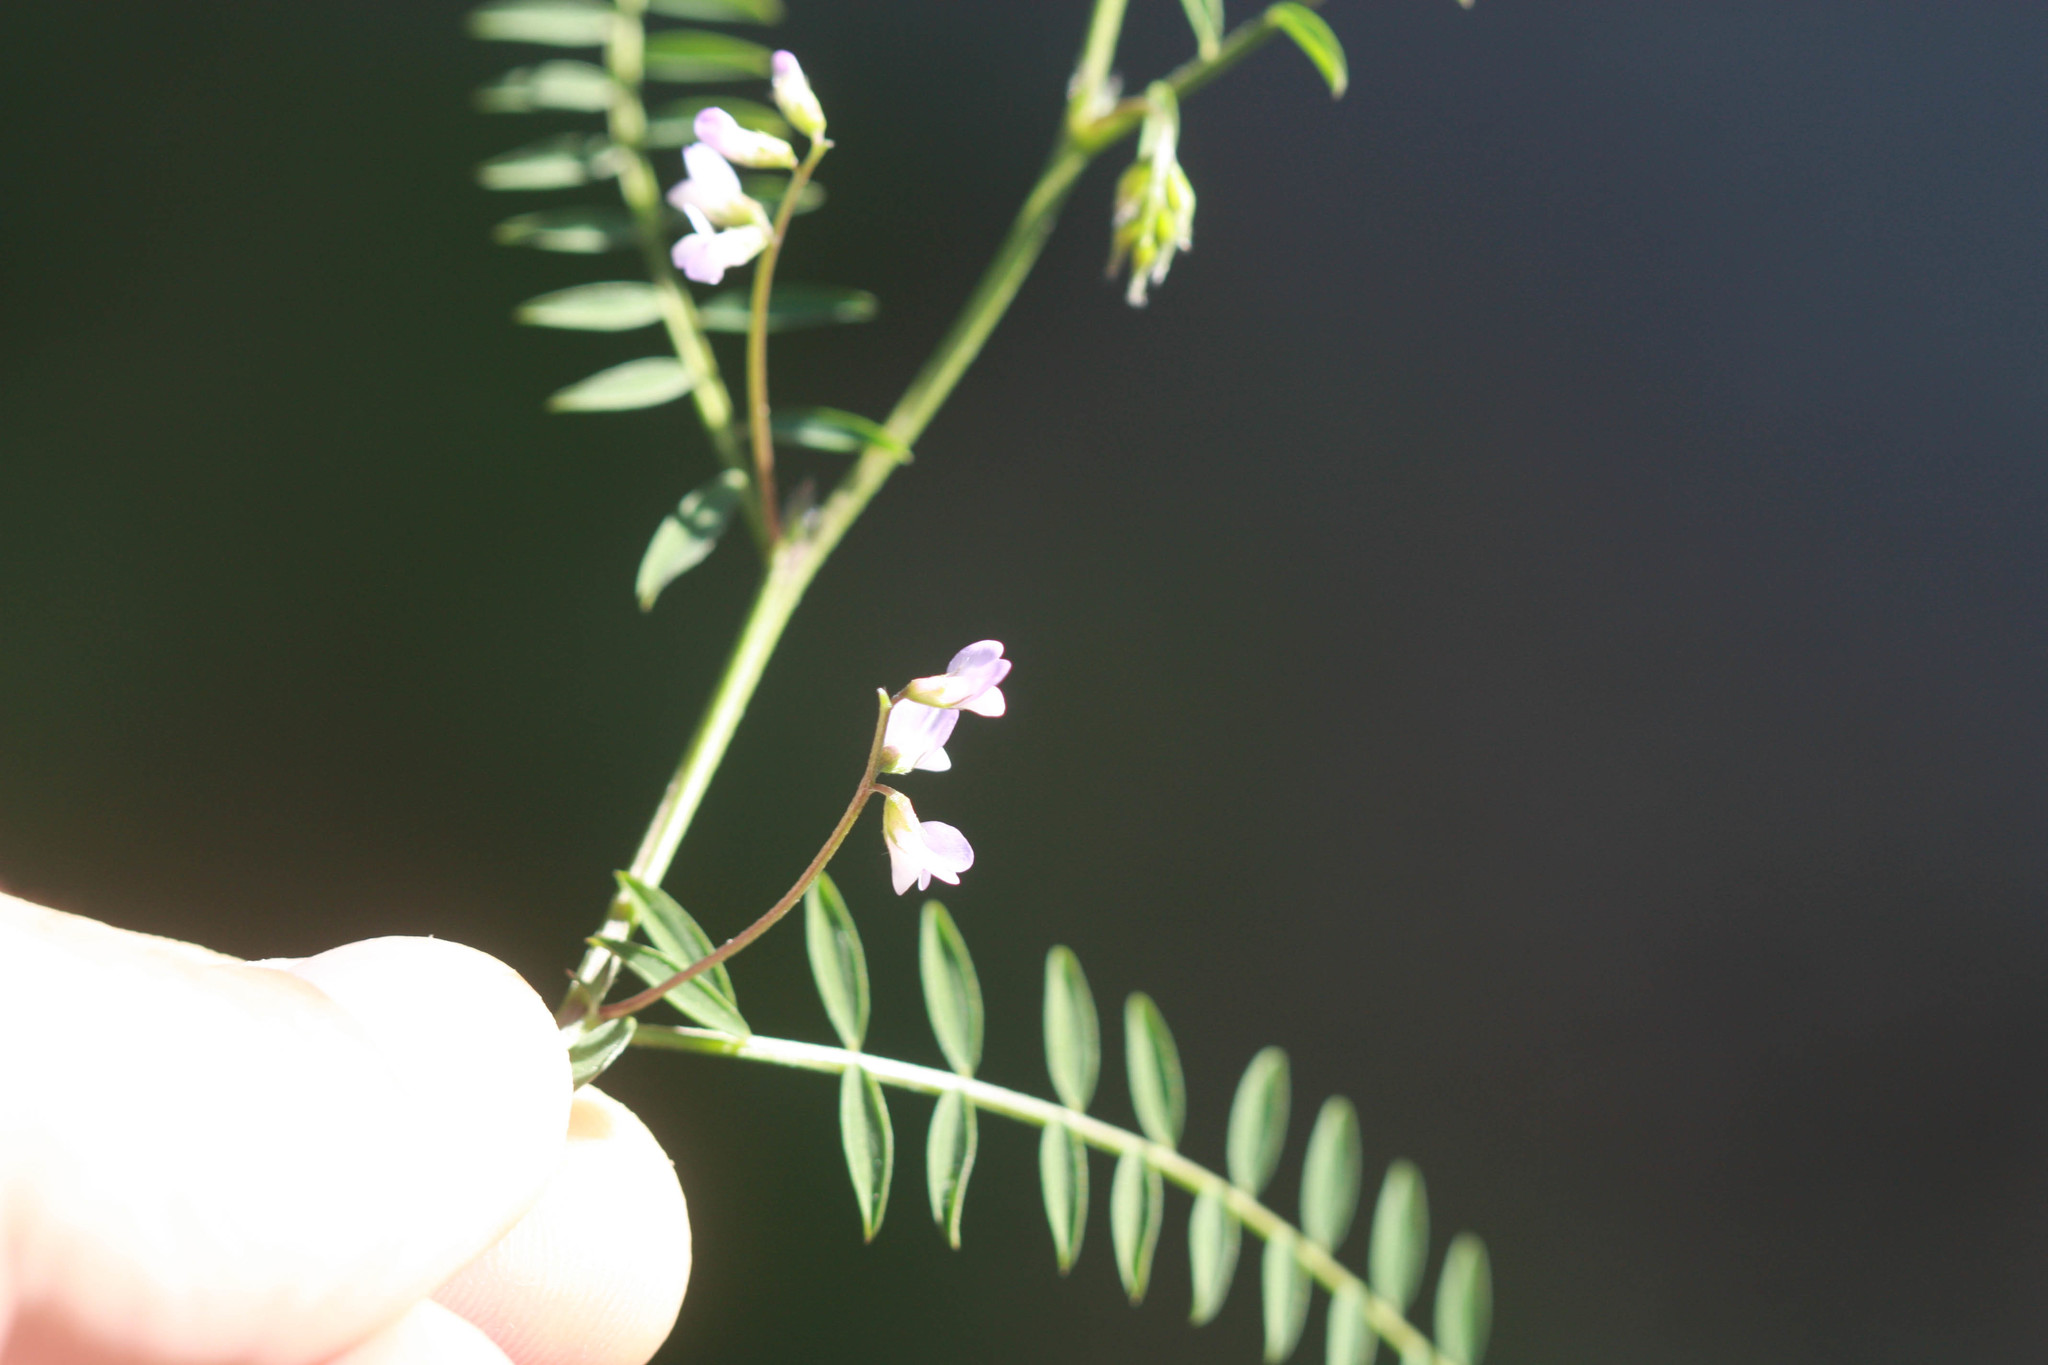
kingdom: Plantae
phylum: Tracheophyta
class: Magnoliopsida
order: Fabales
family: Fabaceae
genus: Vicia
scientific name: Vicia disperma
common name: European vetch
